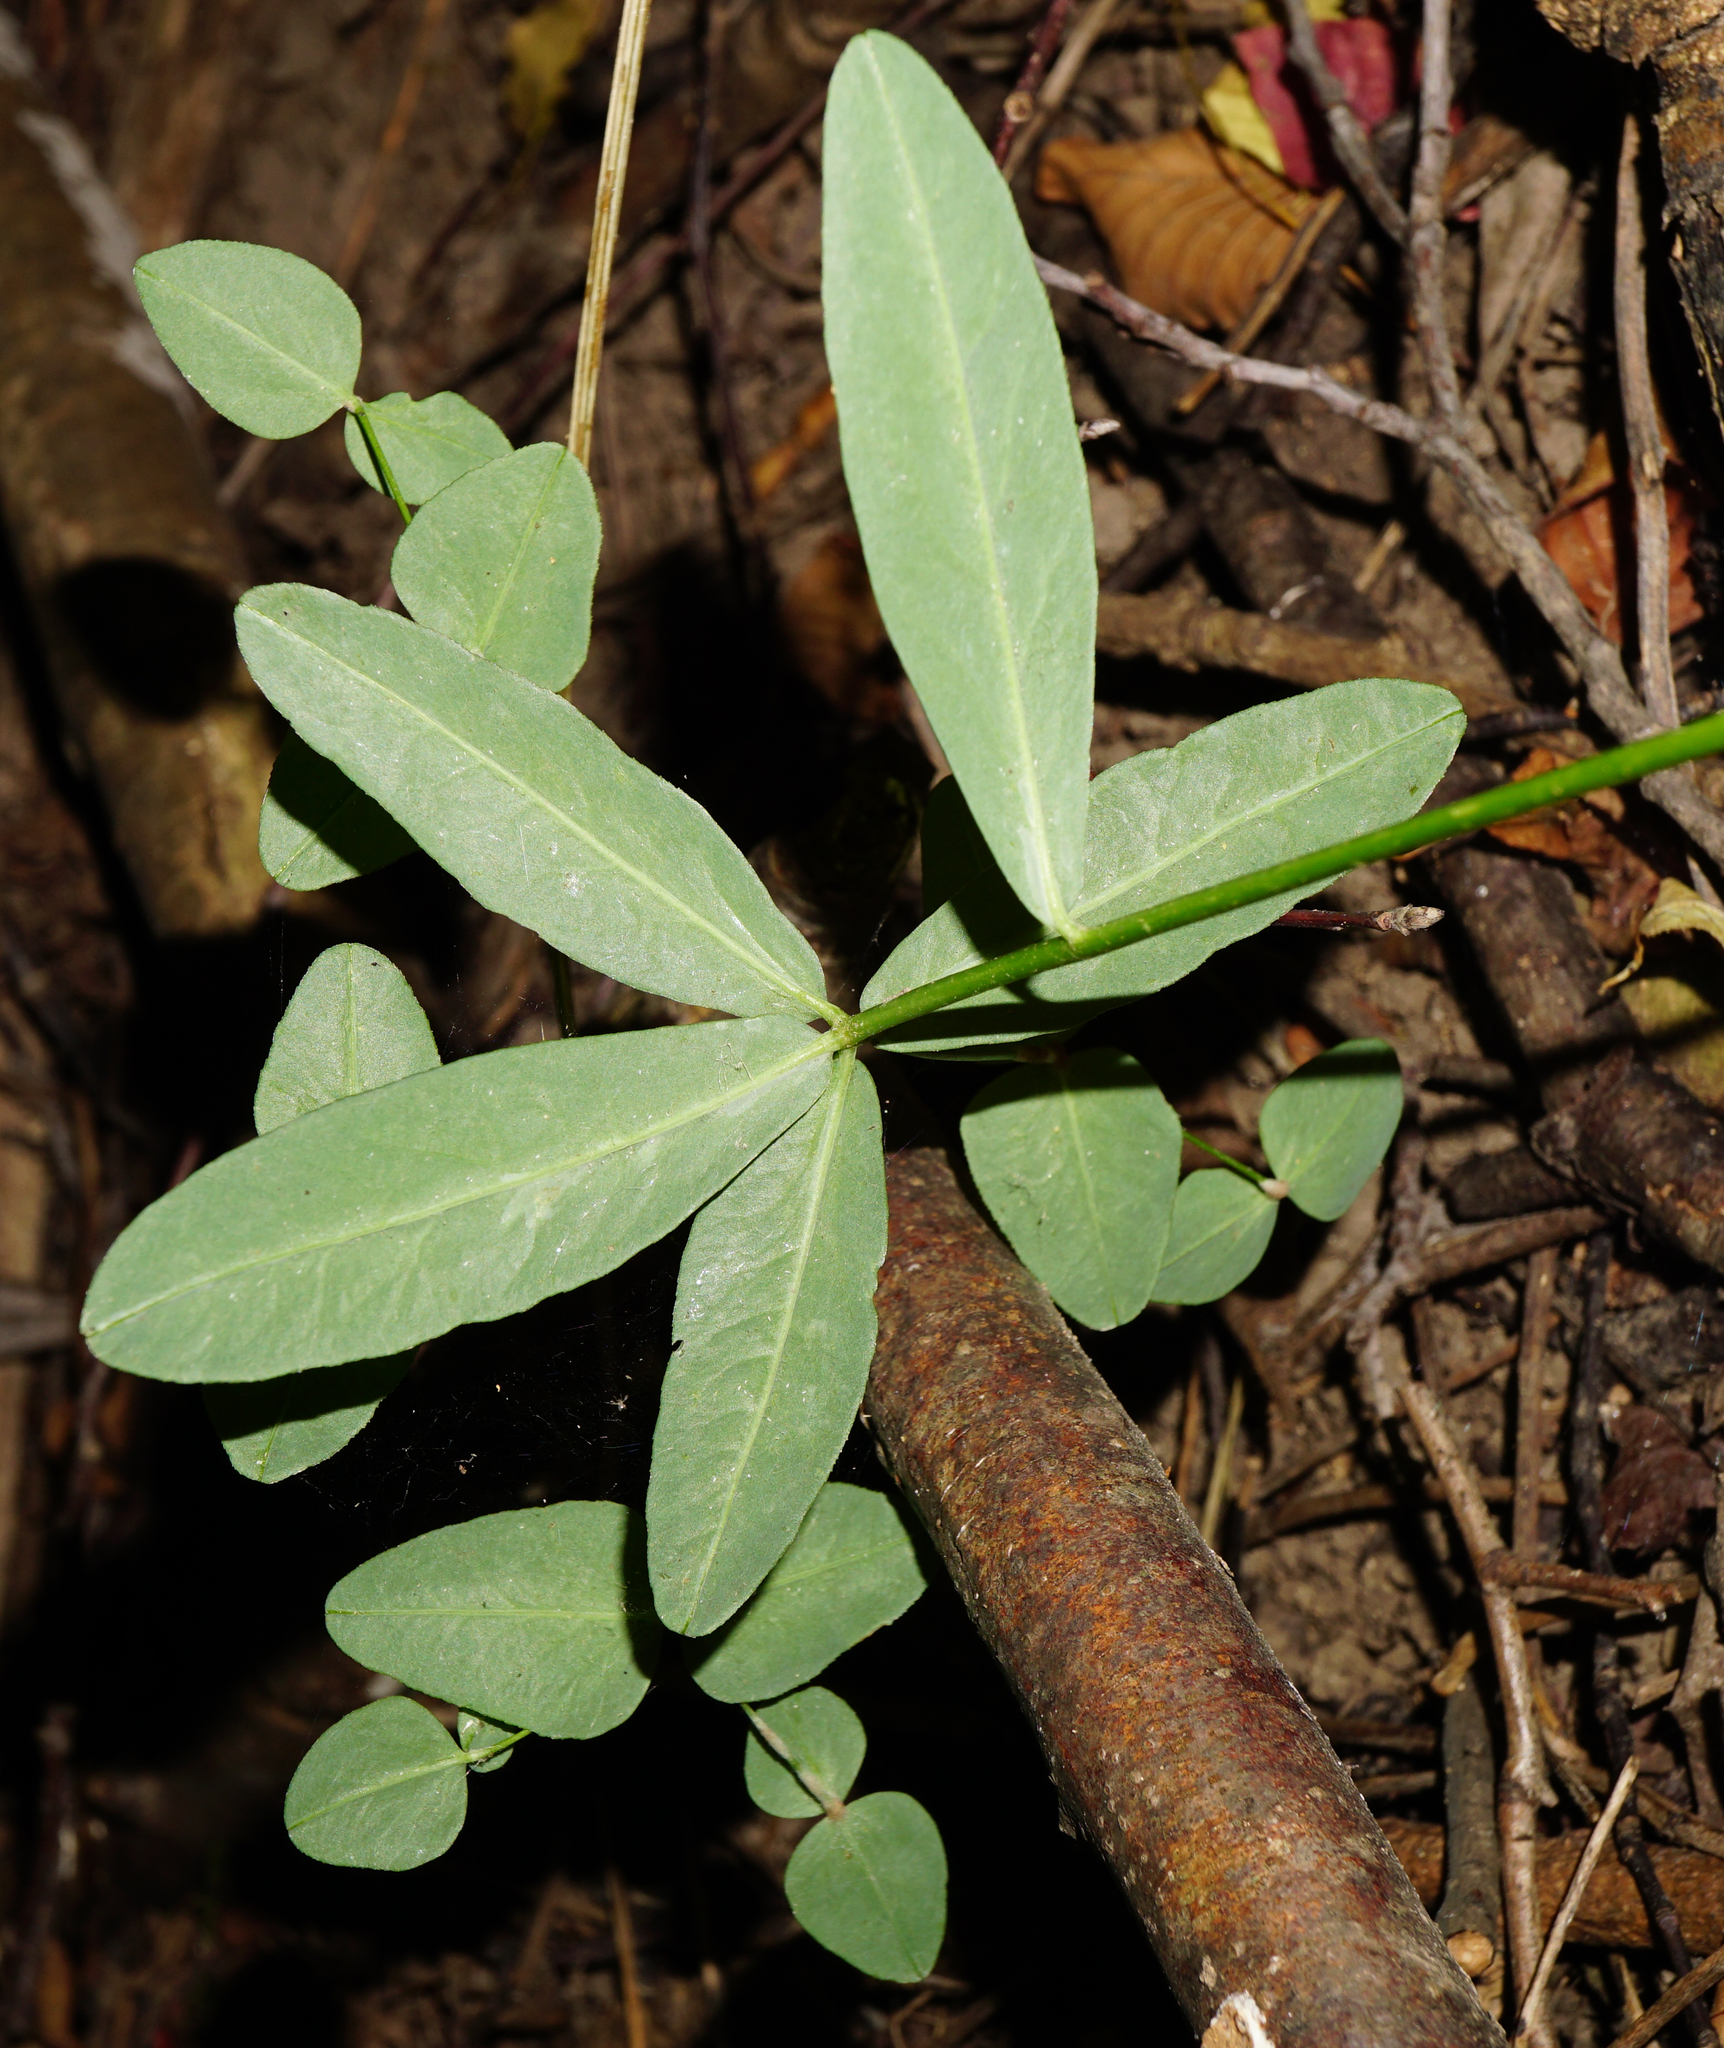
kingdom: Plantae
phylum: Tracheophyta
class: Magnoliopsida
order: Malpighiales
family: Euphorbiaceae
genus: Euphorbia
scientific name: Euphorbia dulcis
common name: Sweet spurge
